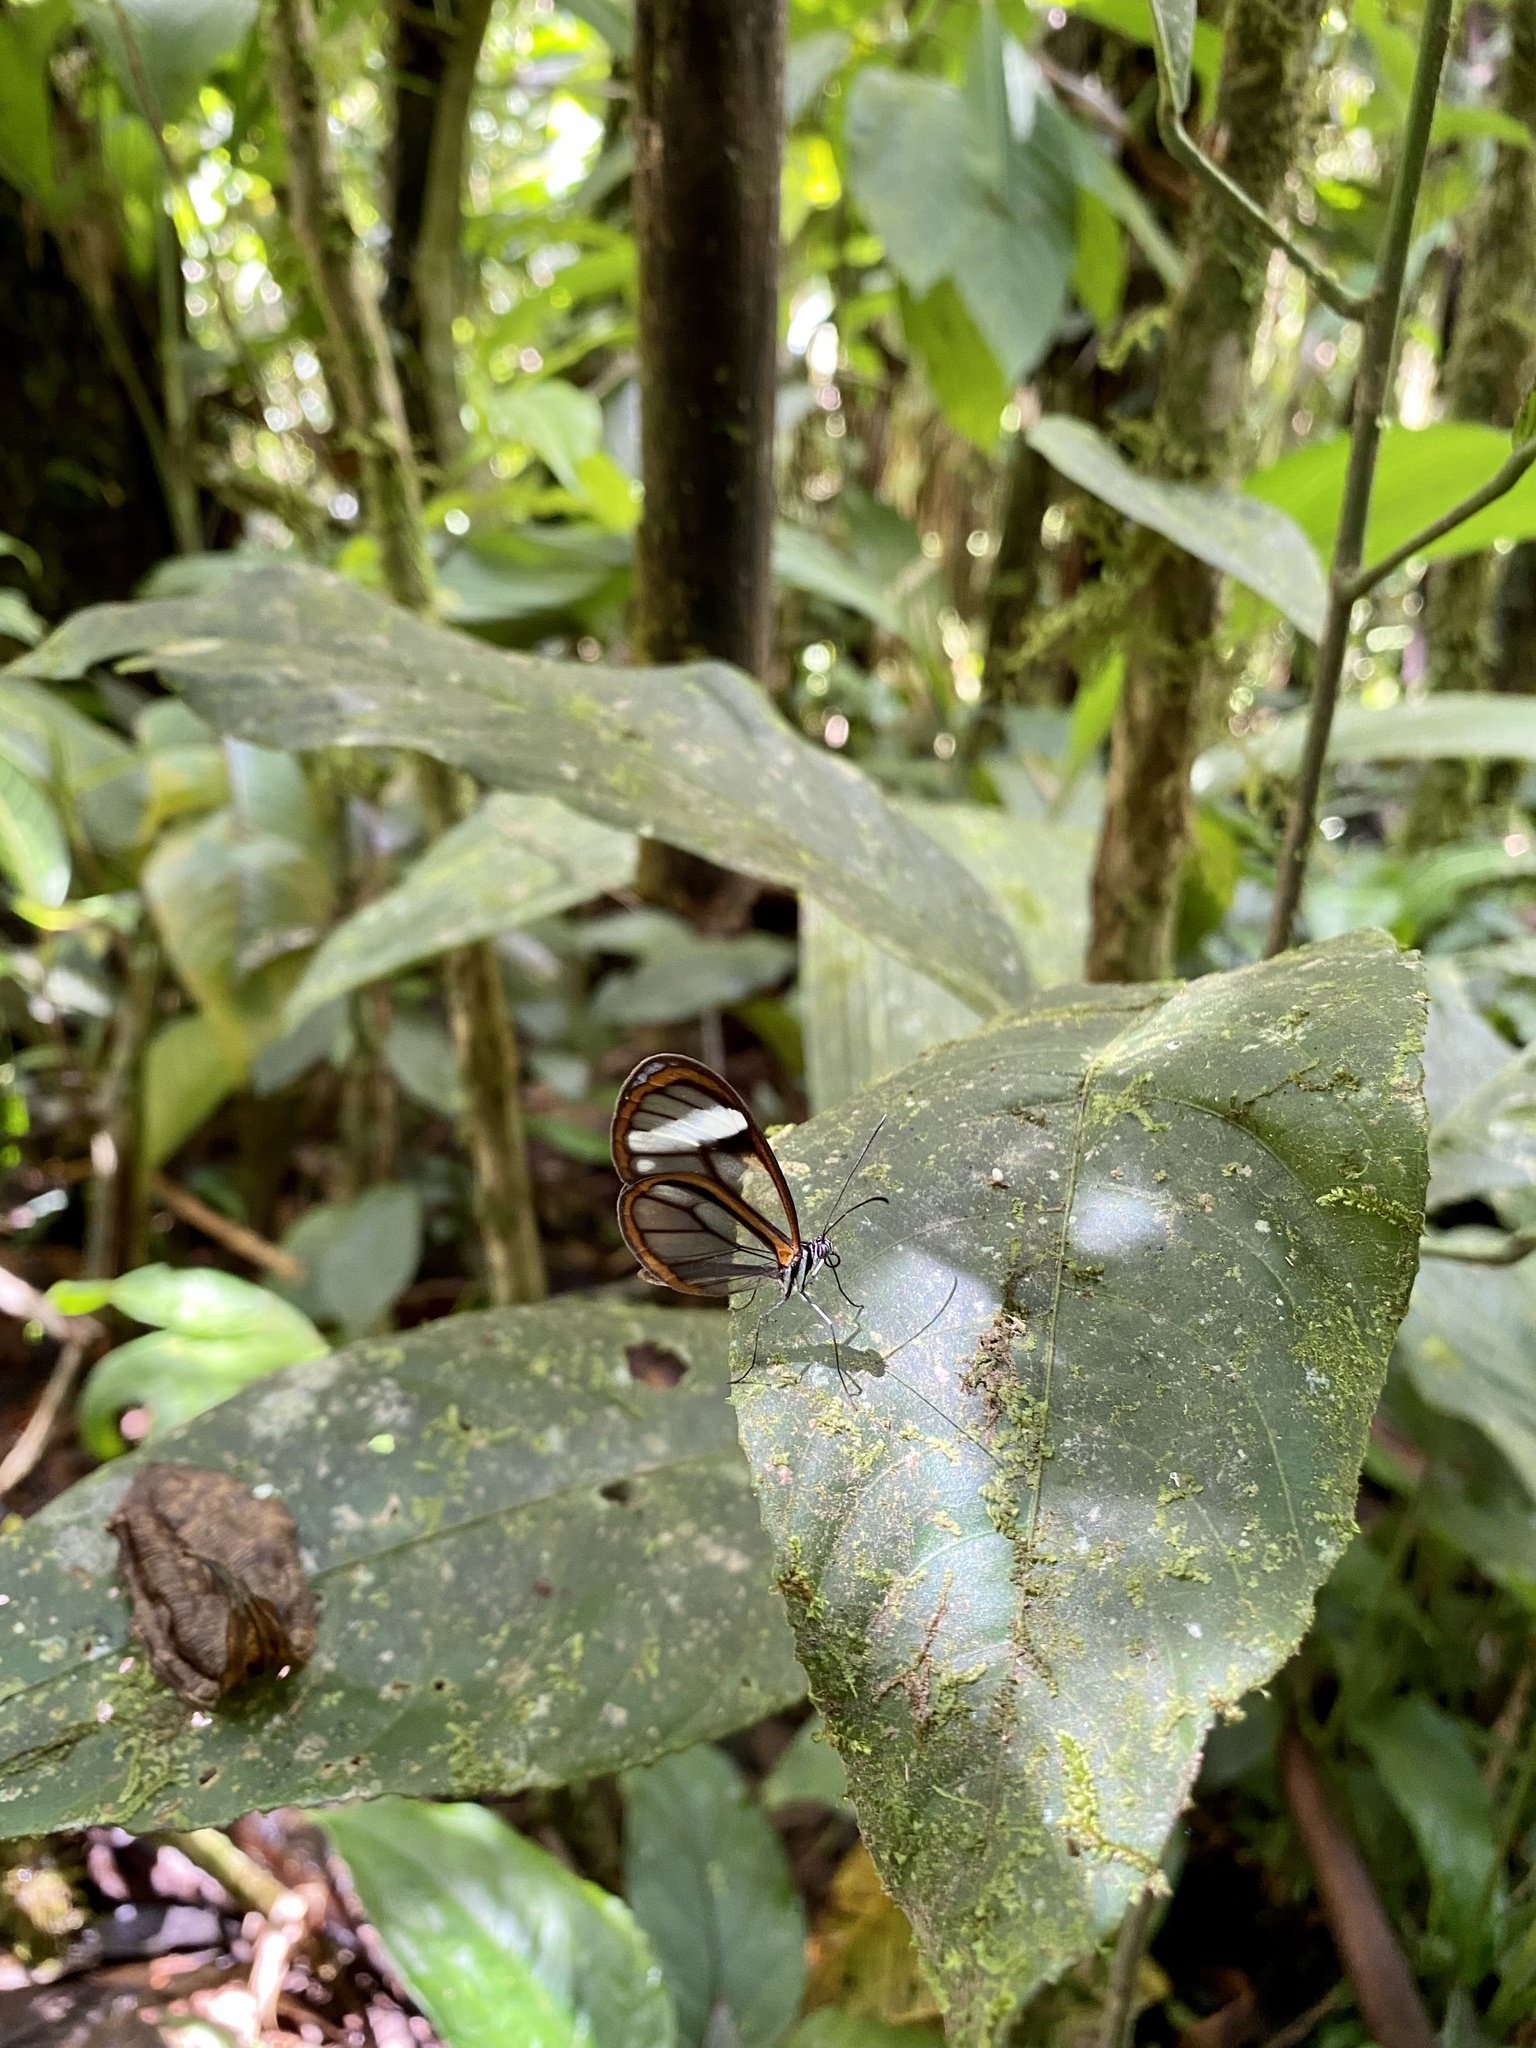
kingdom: Animalia
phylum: Arthropoda
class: Insecta
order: Lepidoptera
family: Nymphalidae
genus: Pseudoscada
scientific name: Pseudoscada timna
